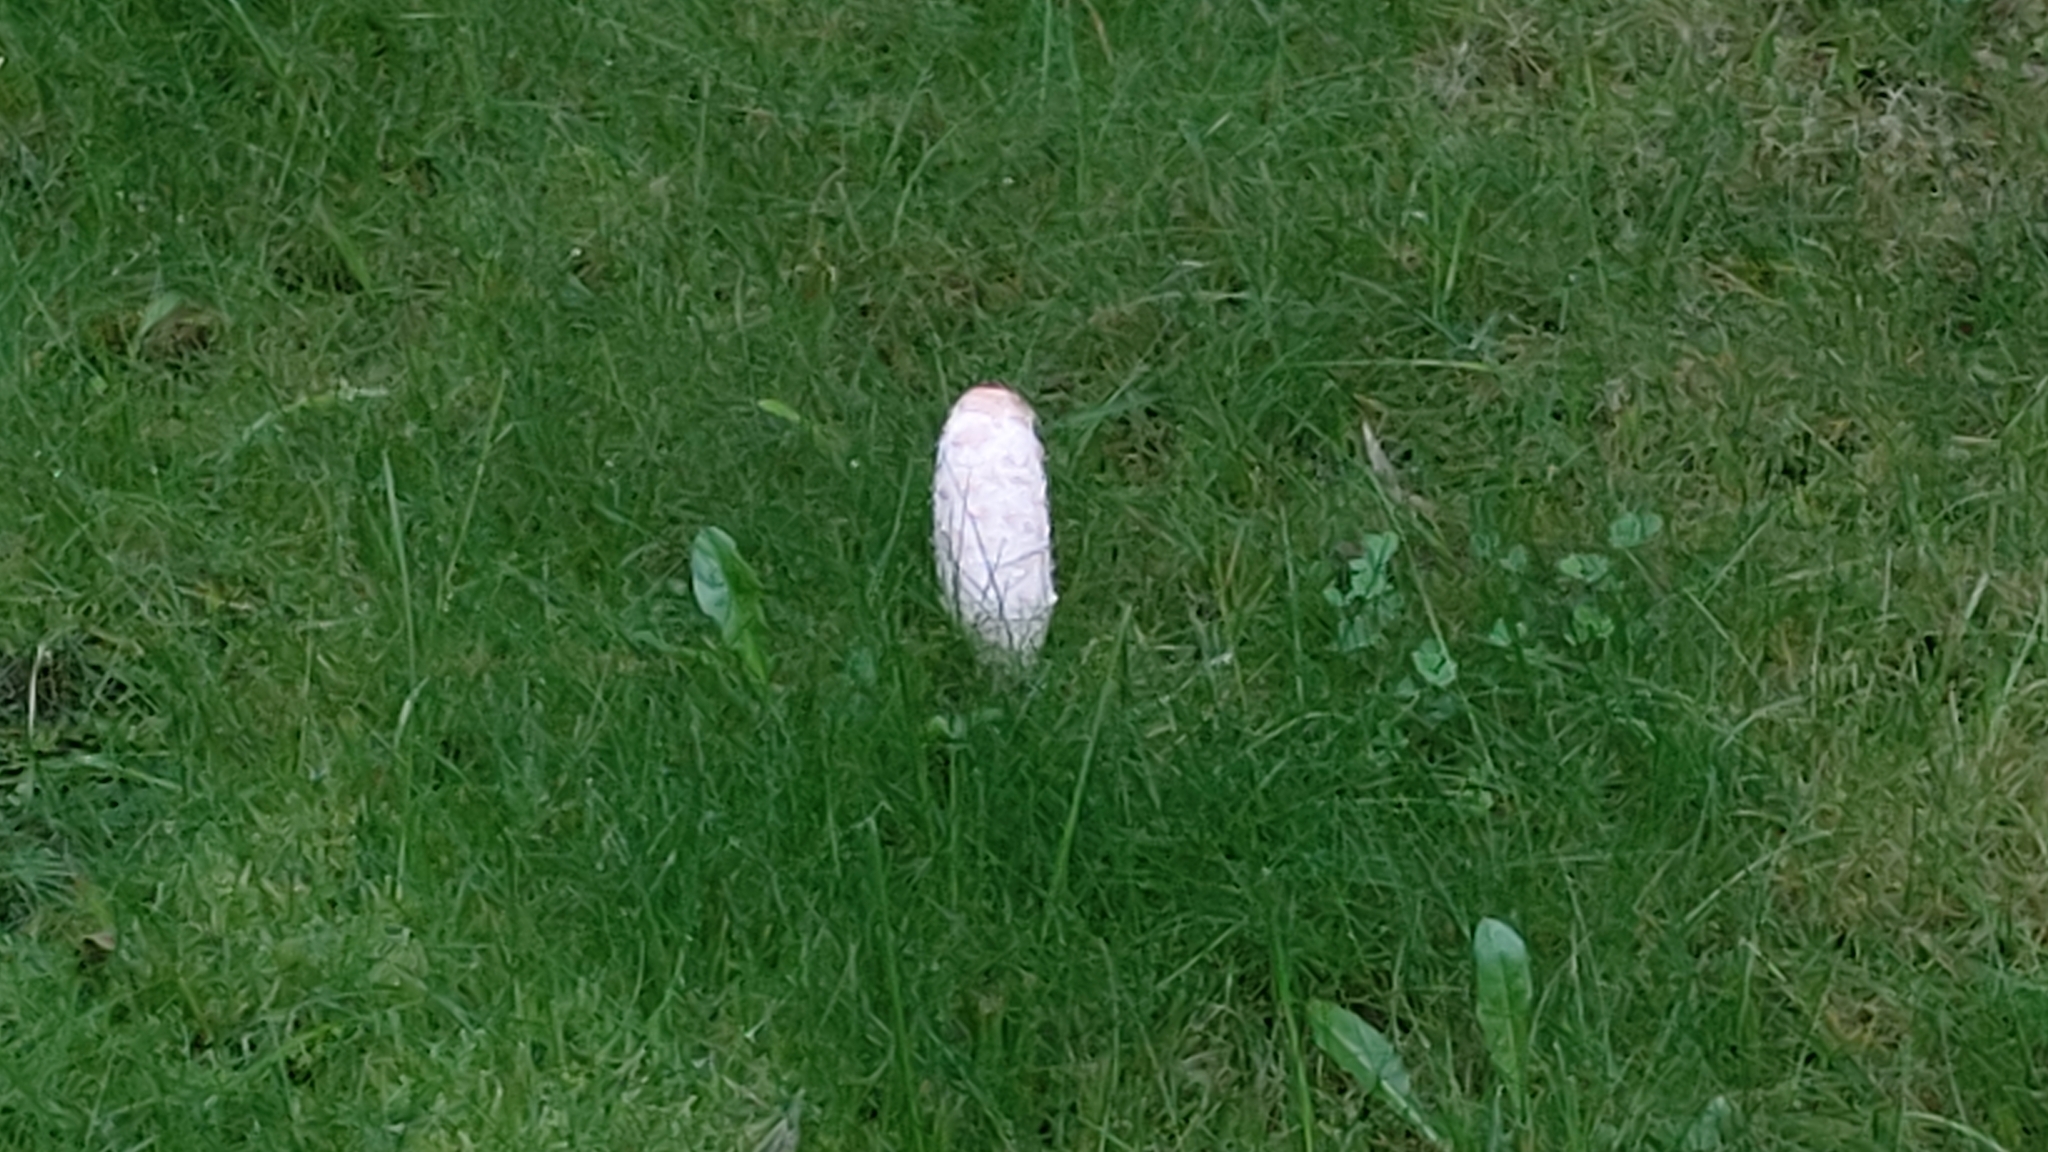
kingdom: Fungi
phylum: Basidiomycota
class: Agaricomycetes
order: Agaricales
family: Agaricaceae
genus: Coprinus
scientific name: Coprinus comatus
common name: Lawyer's wig
